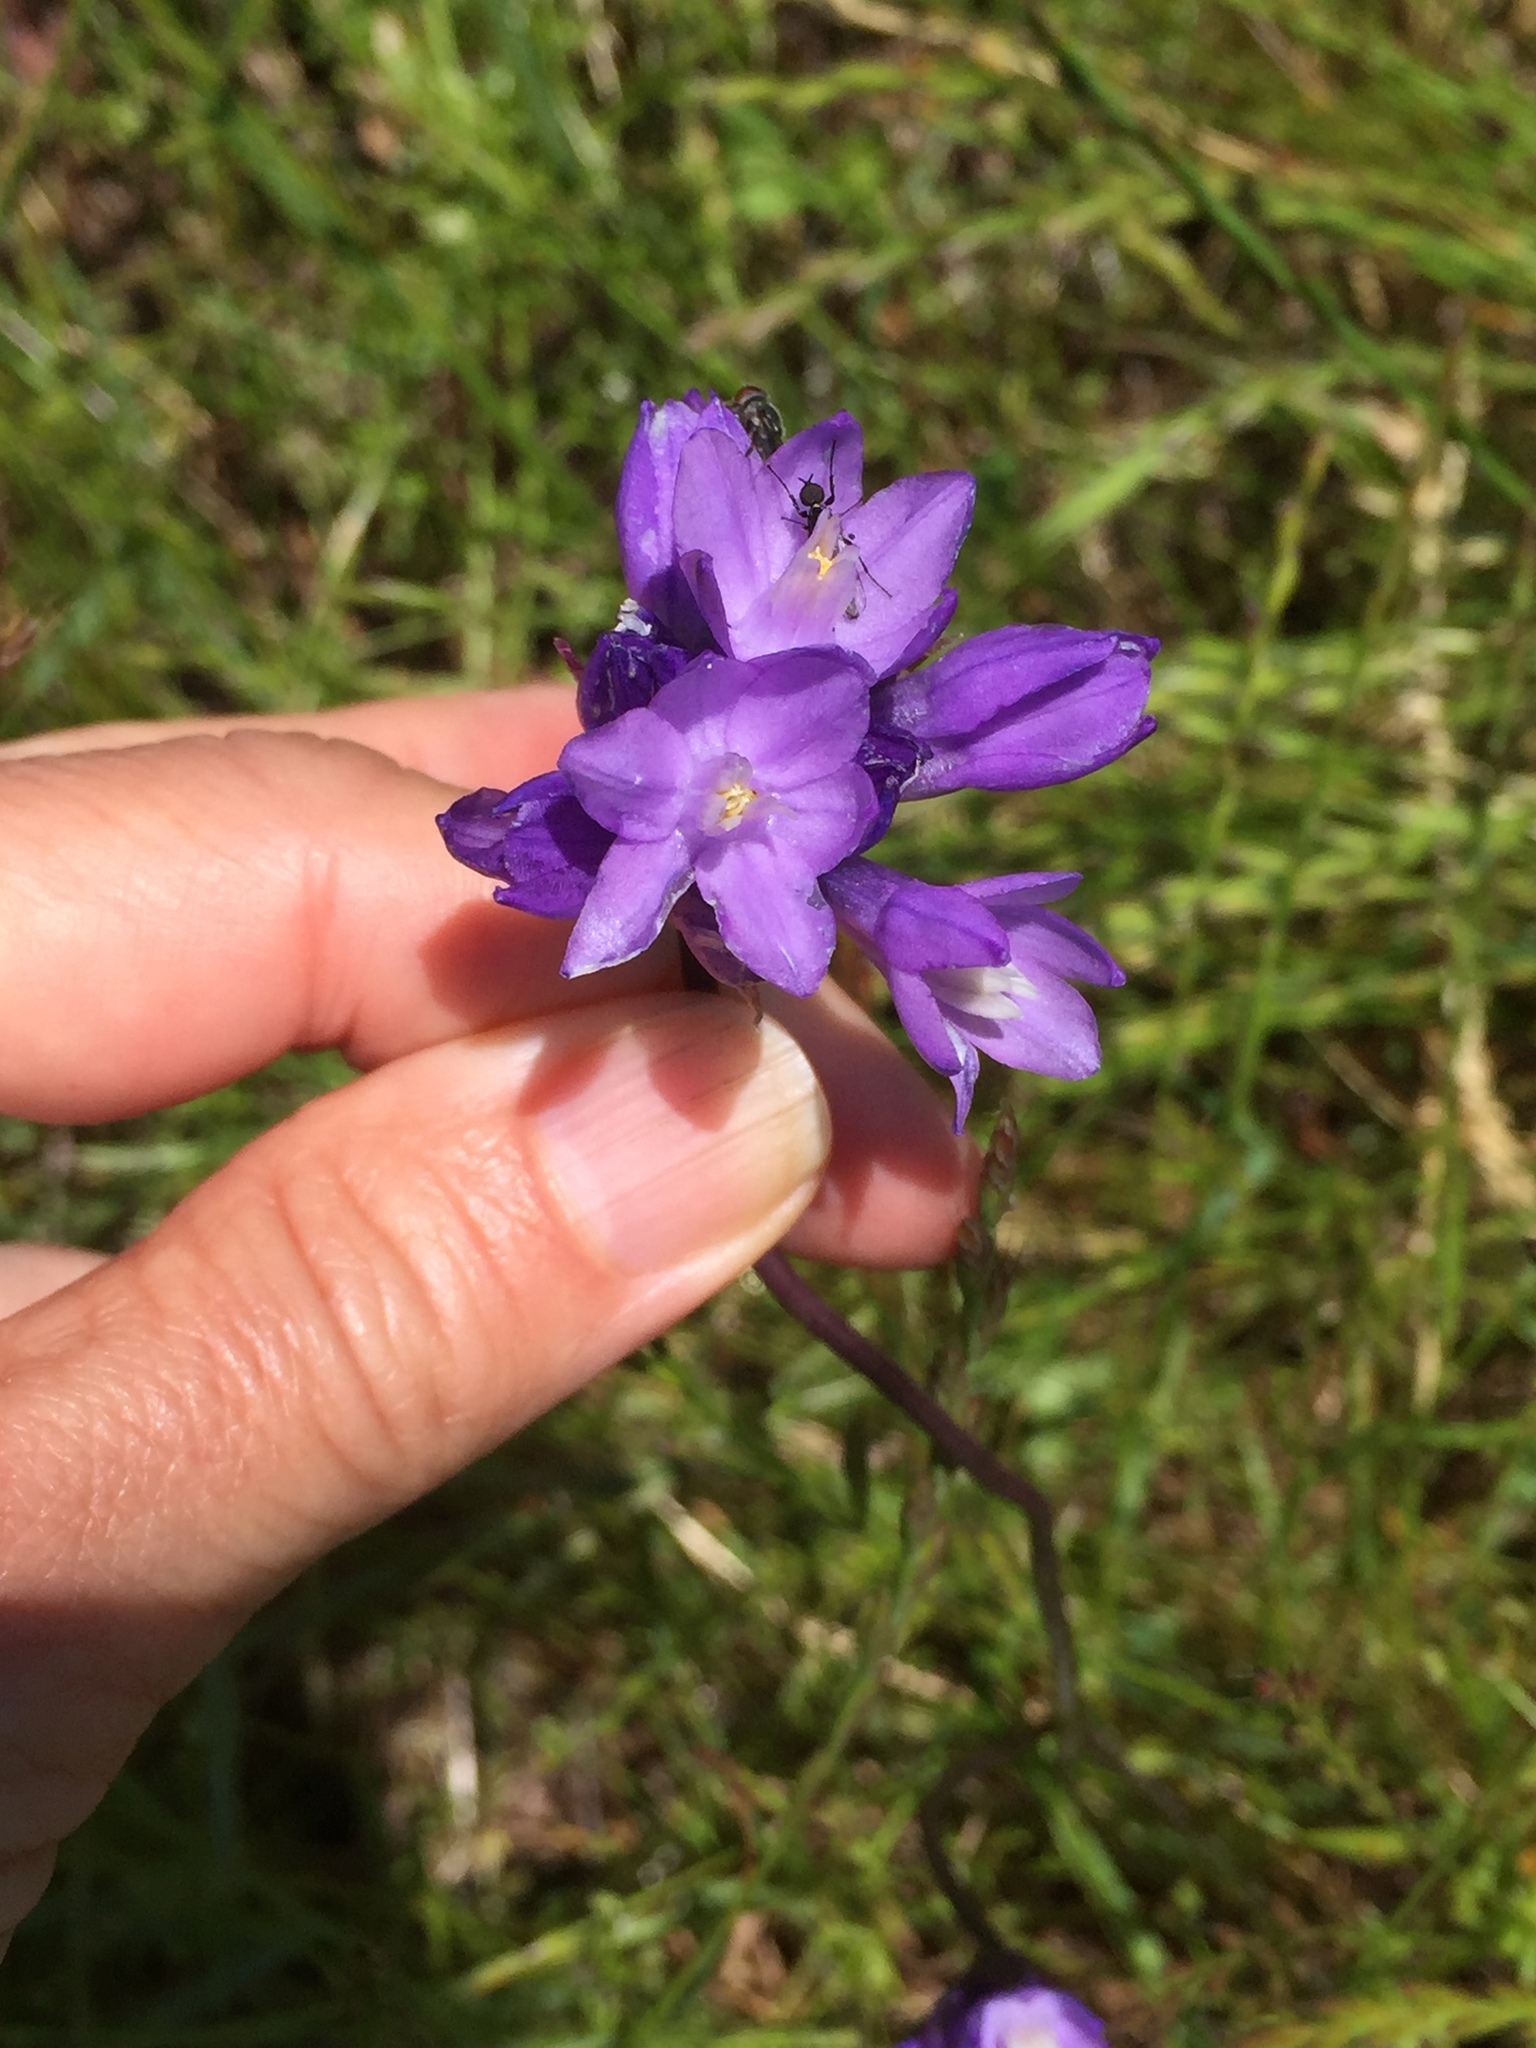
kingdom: Plantae
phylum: Tracheophyta
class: Liliopsida
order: Asparagales
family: Asparagaceae
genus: Dipterostemon
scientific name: Dipterostemon capitatus
